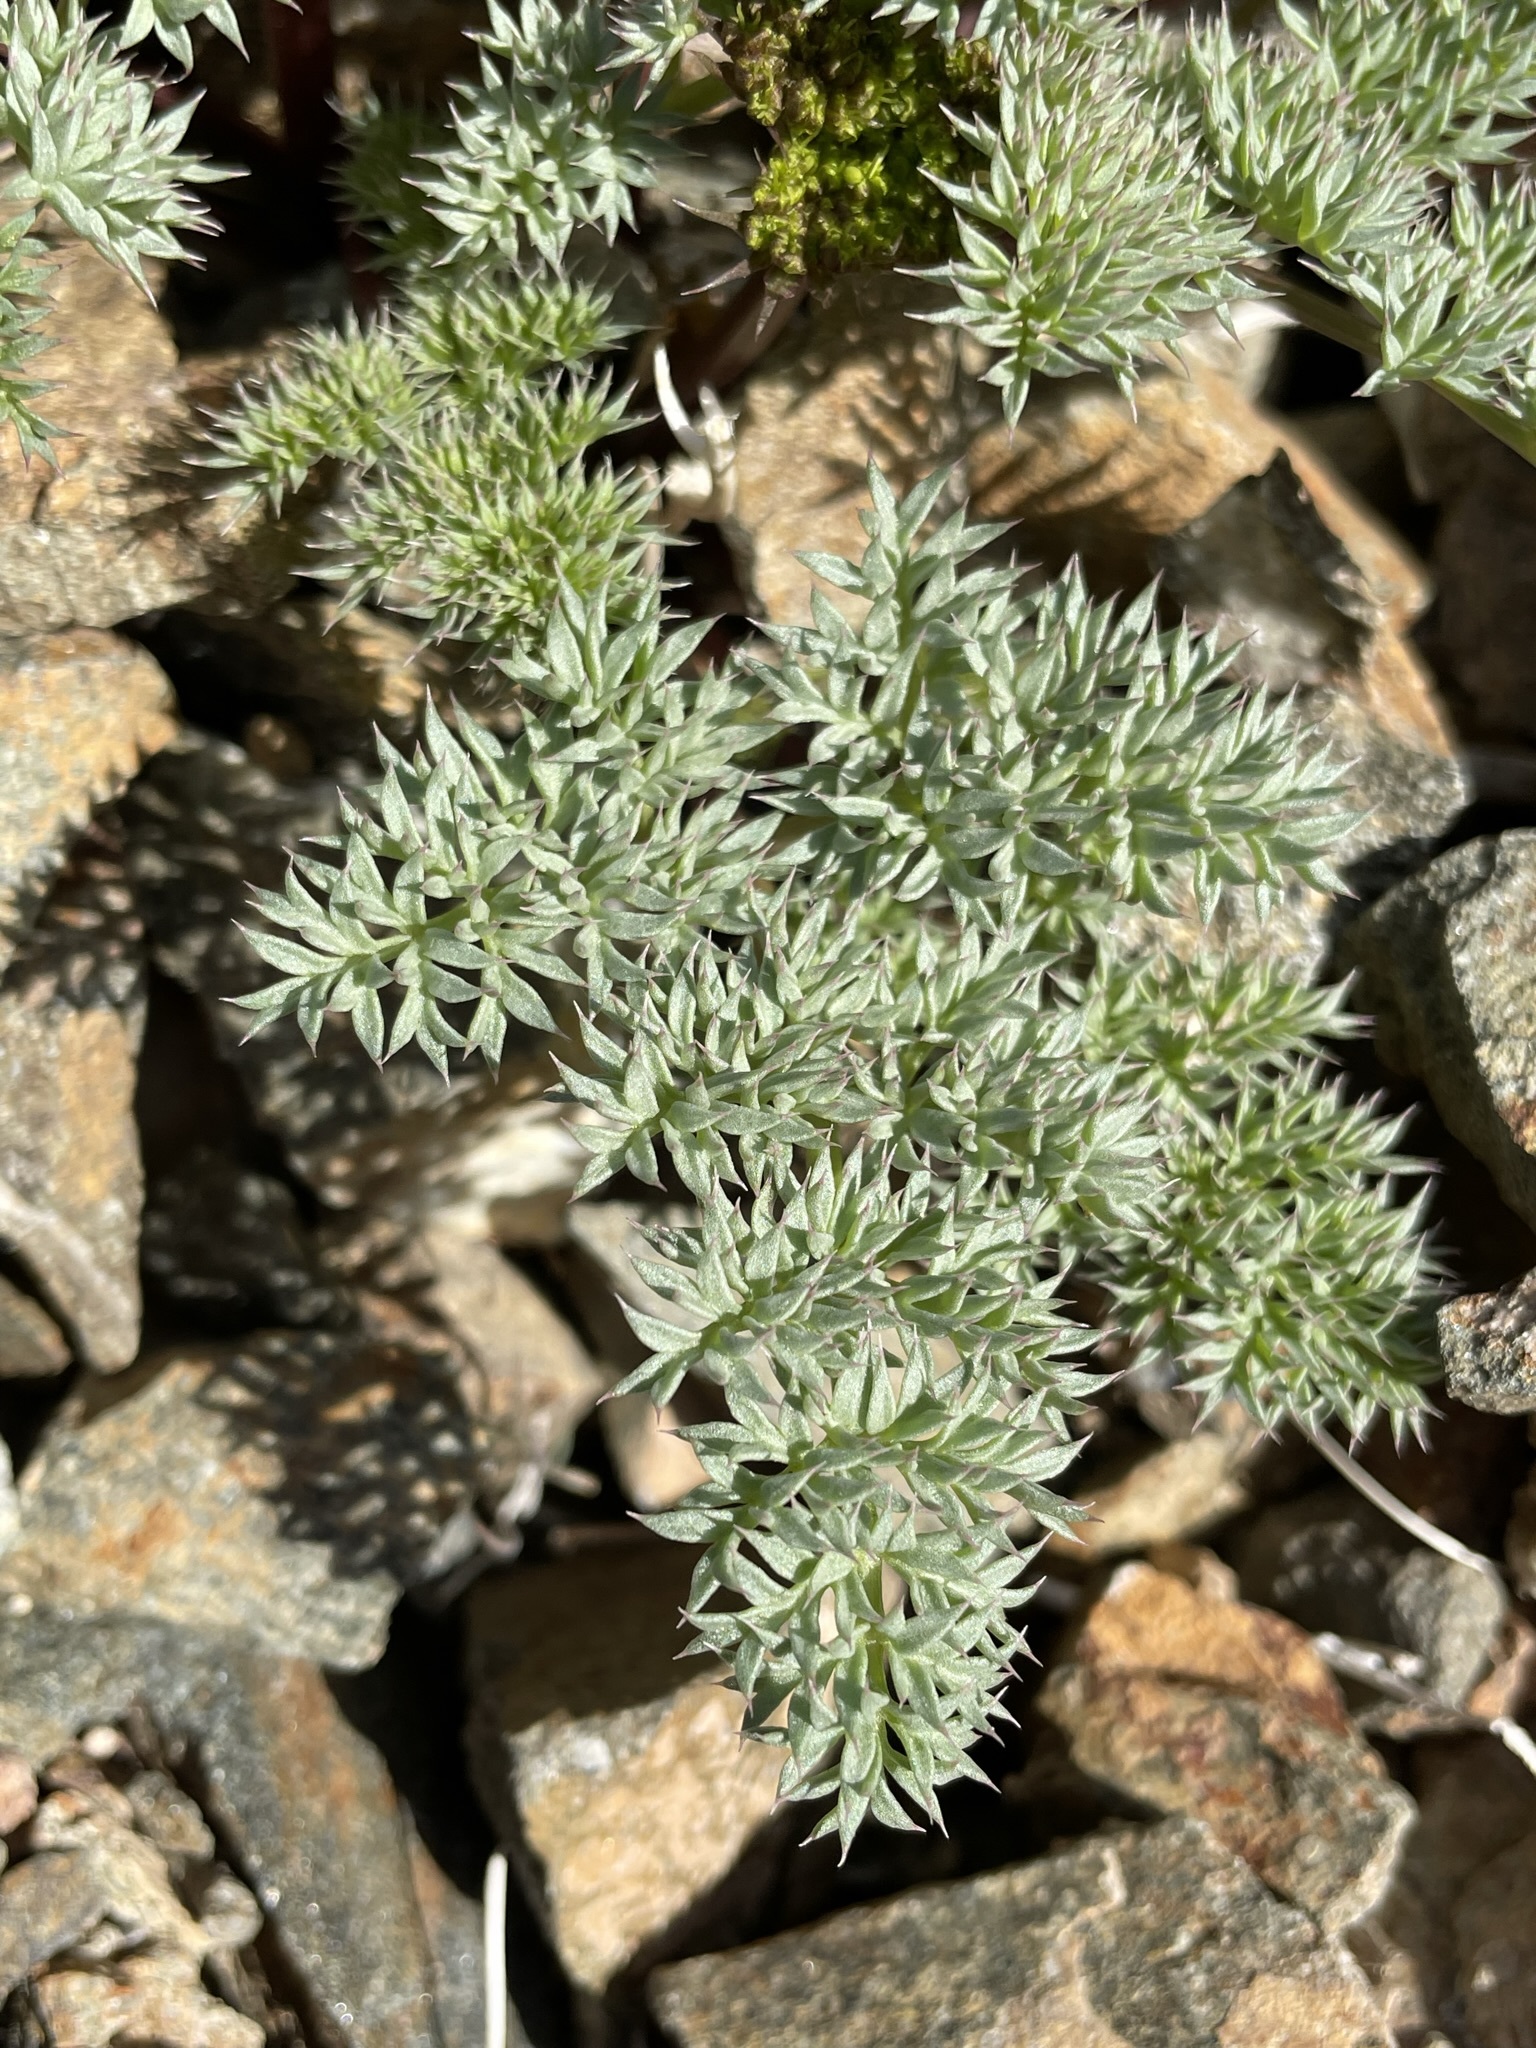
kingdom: Plantae
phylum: Tracheophyta
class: Magnoliopsida
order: Apiales
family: Apiaceae
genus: Aulospermum
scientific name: Aulospermum panamintense
